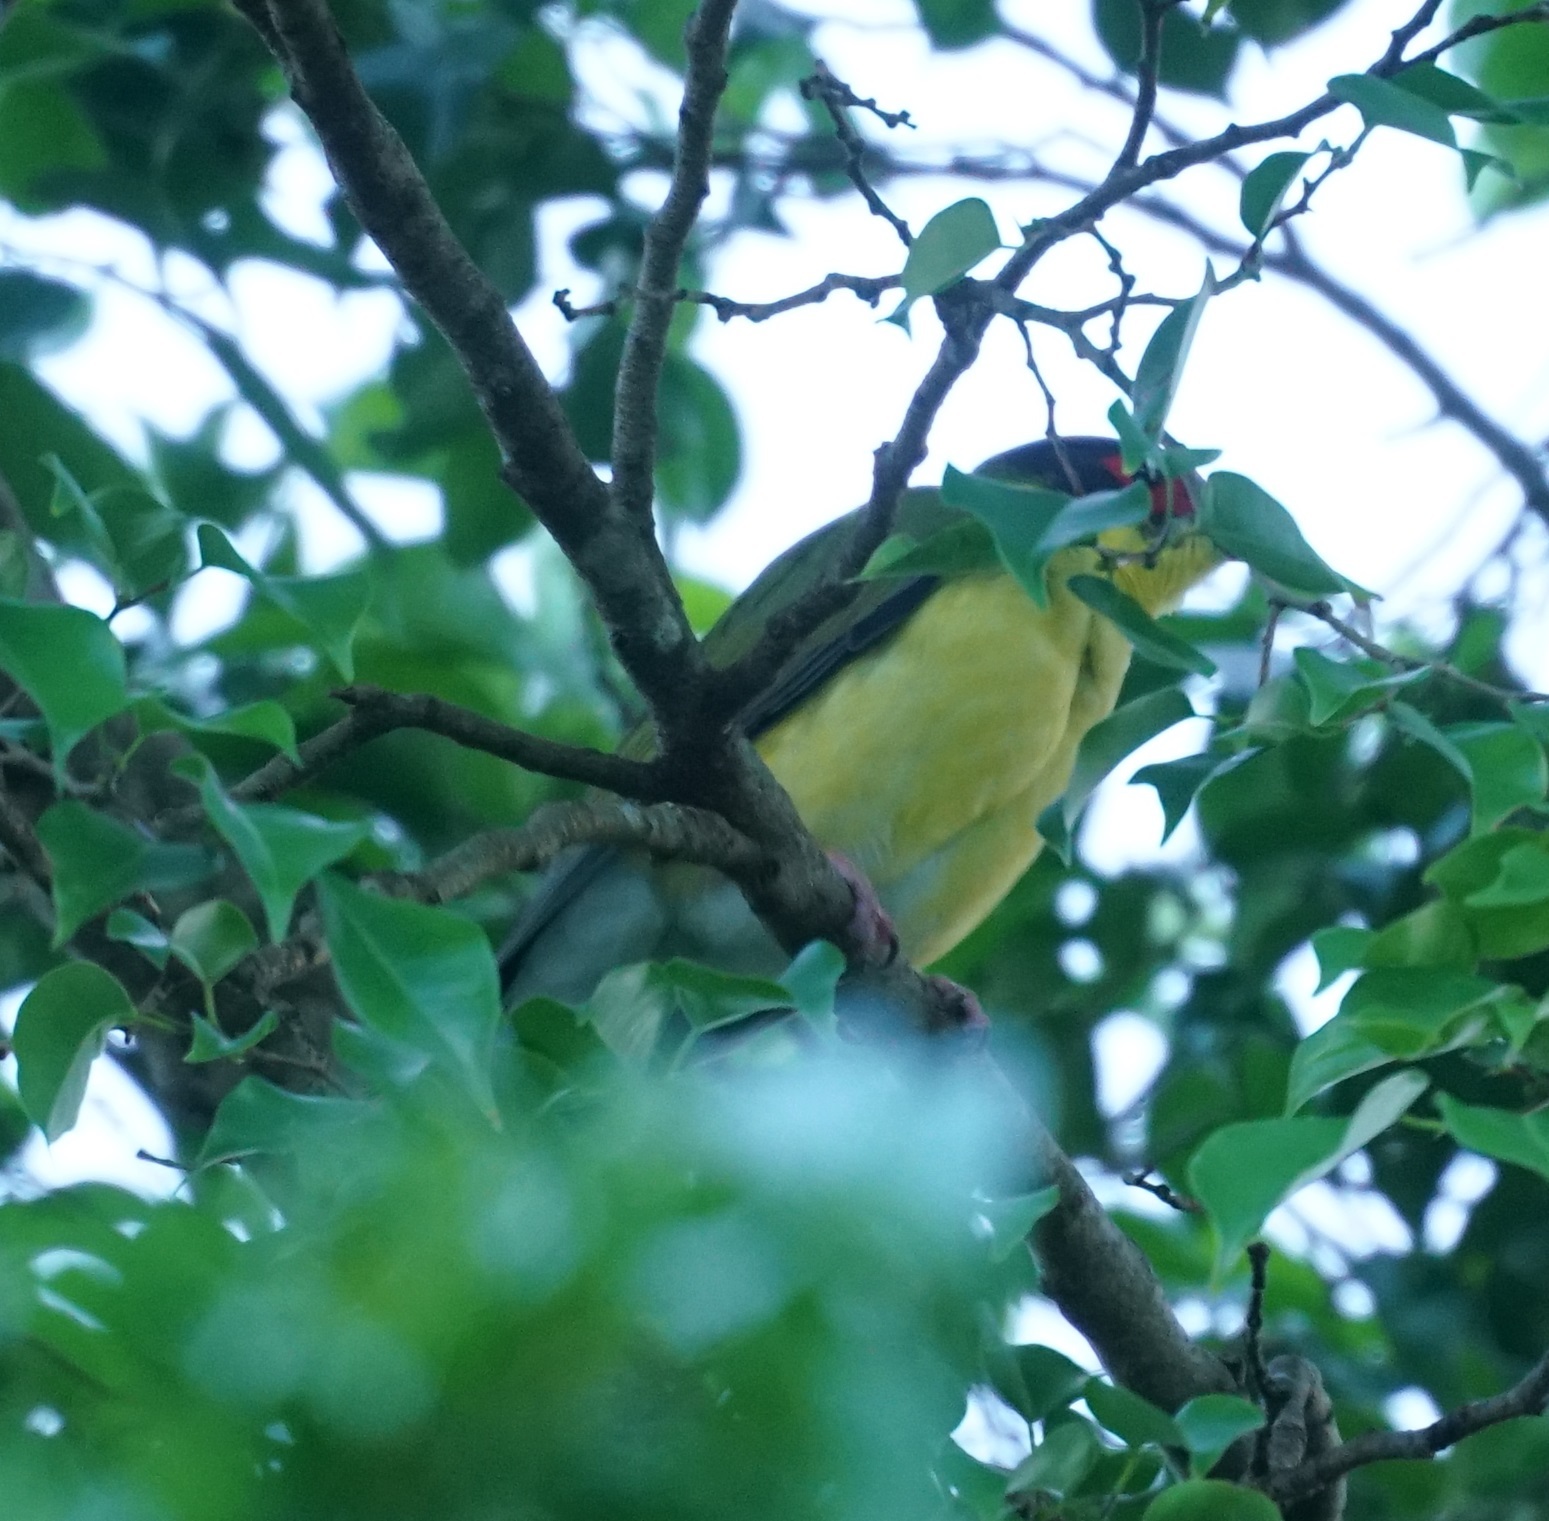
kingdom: Animalia
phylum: Chordata
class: Aves
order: Passeriformes
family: Oriolidae
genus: Sphecotheres
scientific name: Sphecotheres vieilloti
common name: Australasian figbird
